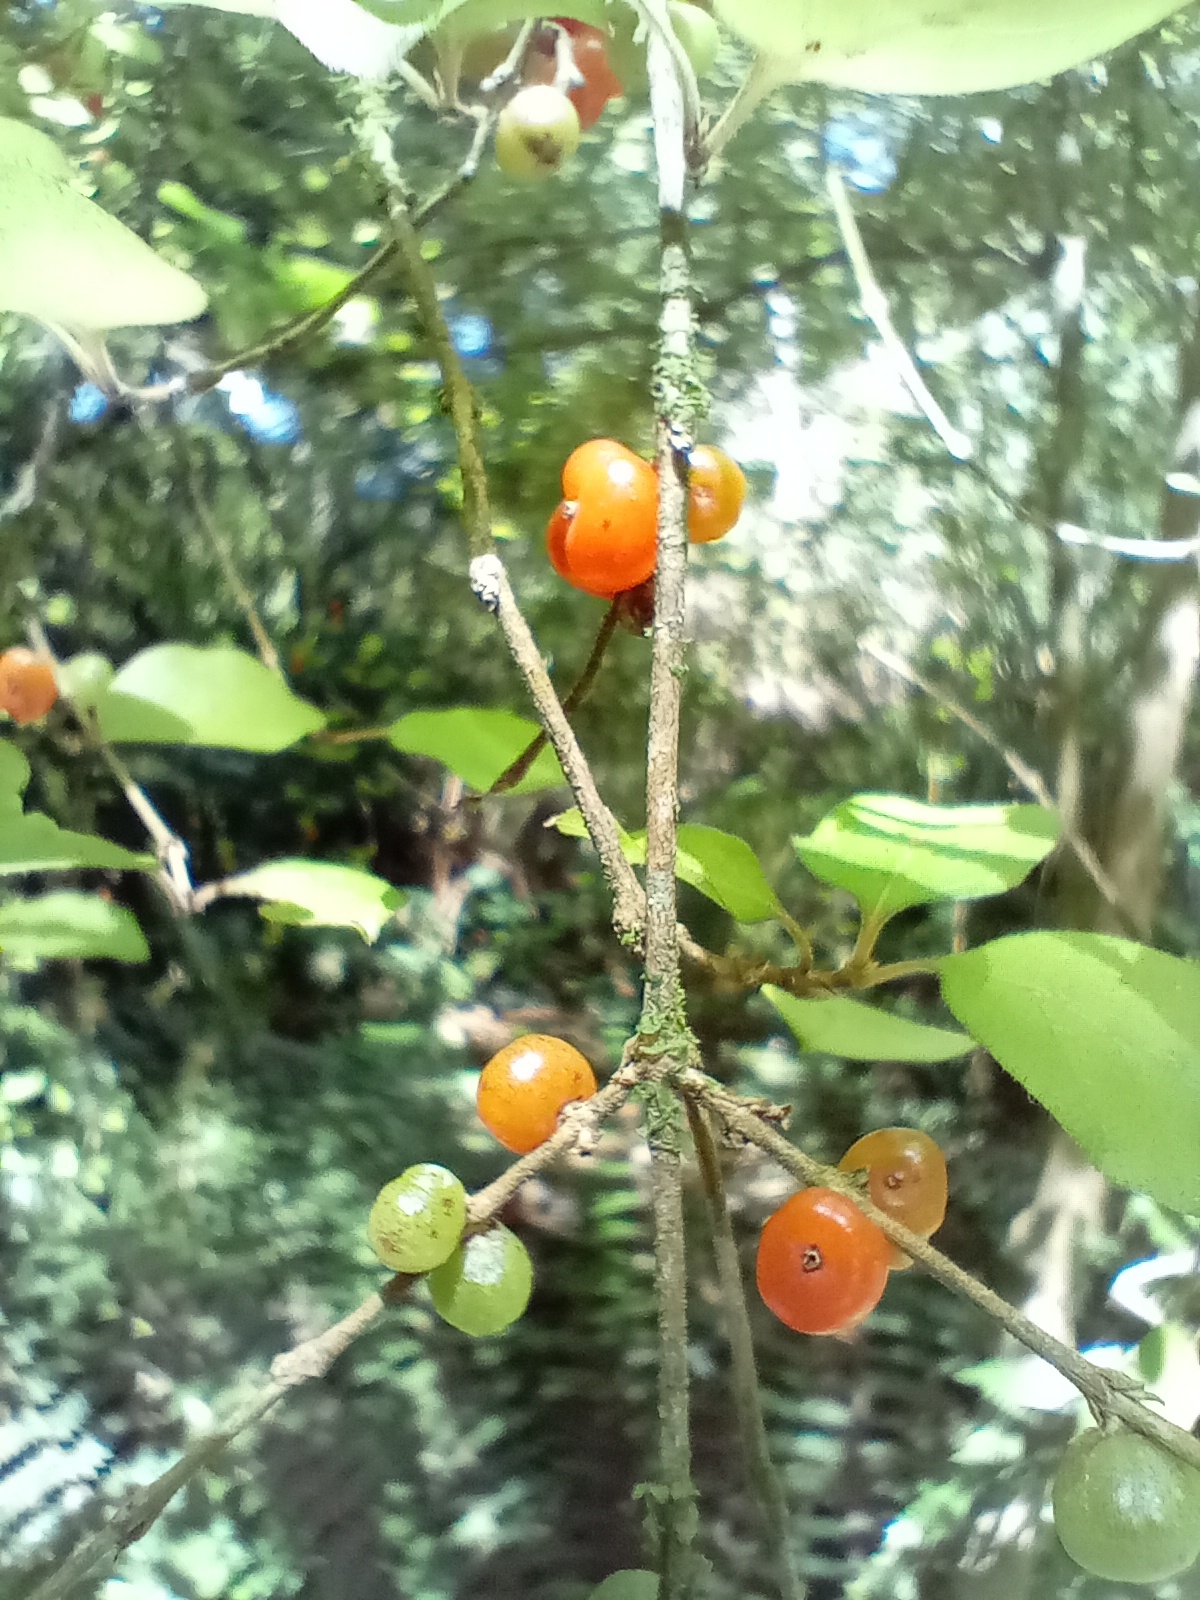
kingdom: Plantae
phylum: Tracheophyta
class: Magnoliopsida
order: Gentianales
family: Rubiaceae
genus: Coprosma
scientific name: Coprosma rotundifolia
